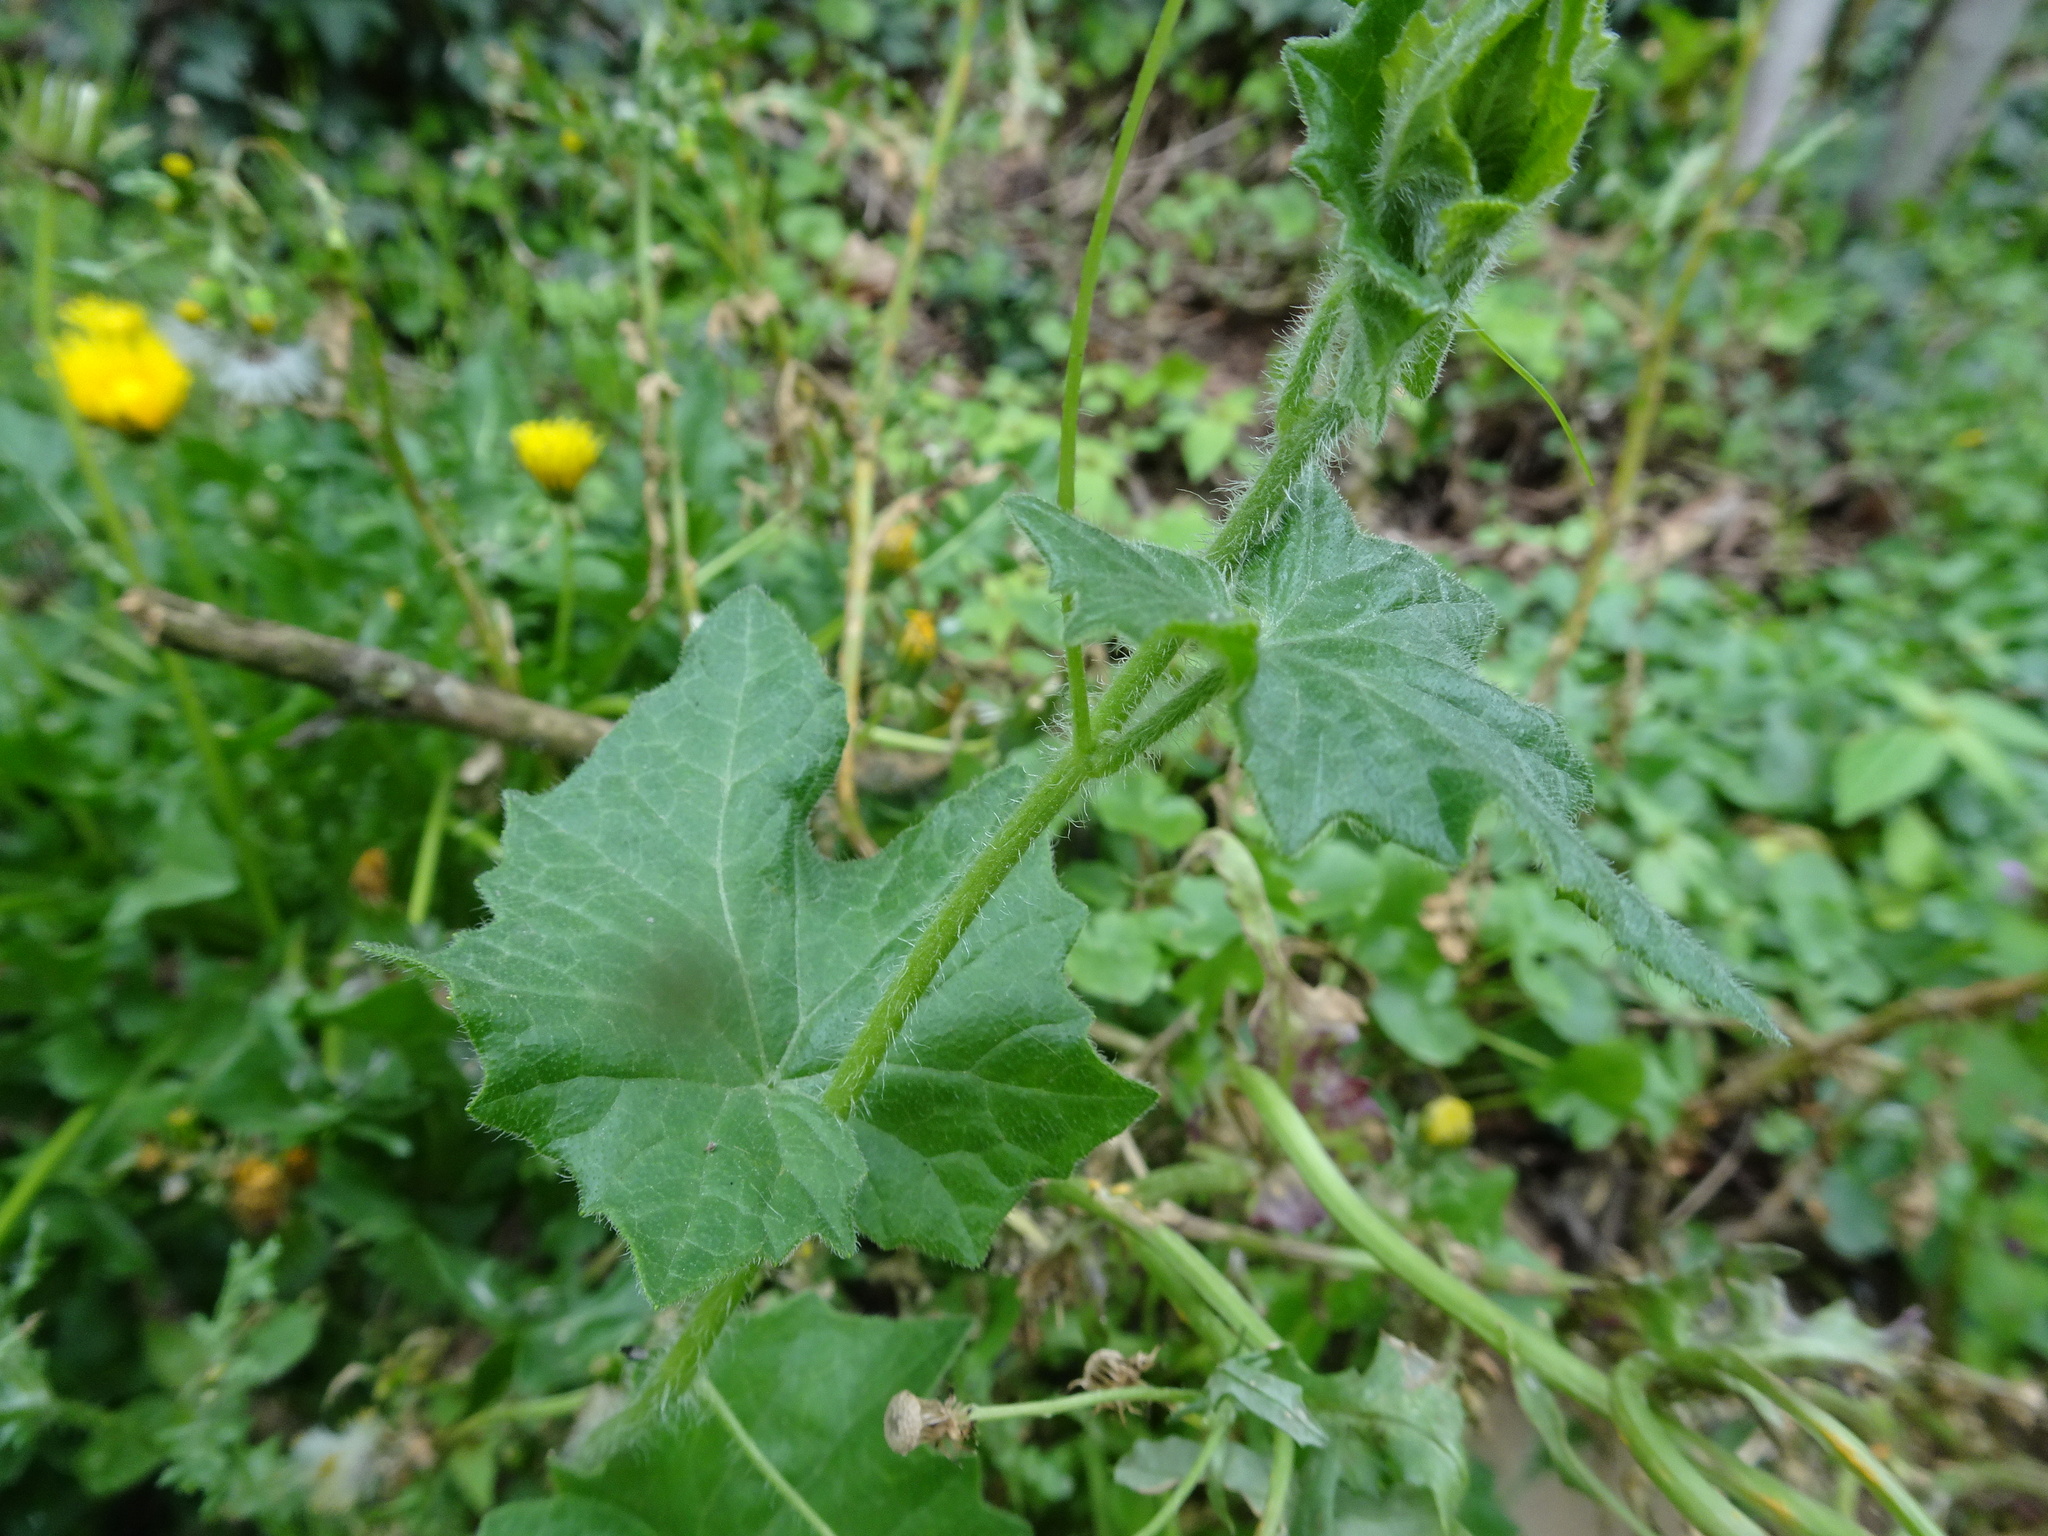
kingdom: Plantae
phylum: Tracheophyta
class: Magnoliopsida
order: Cucurbitales
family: Cucurbitaceae
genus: Bryonia
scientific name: Bryonia cretica
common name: Cretan bryony
